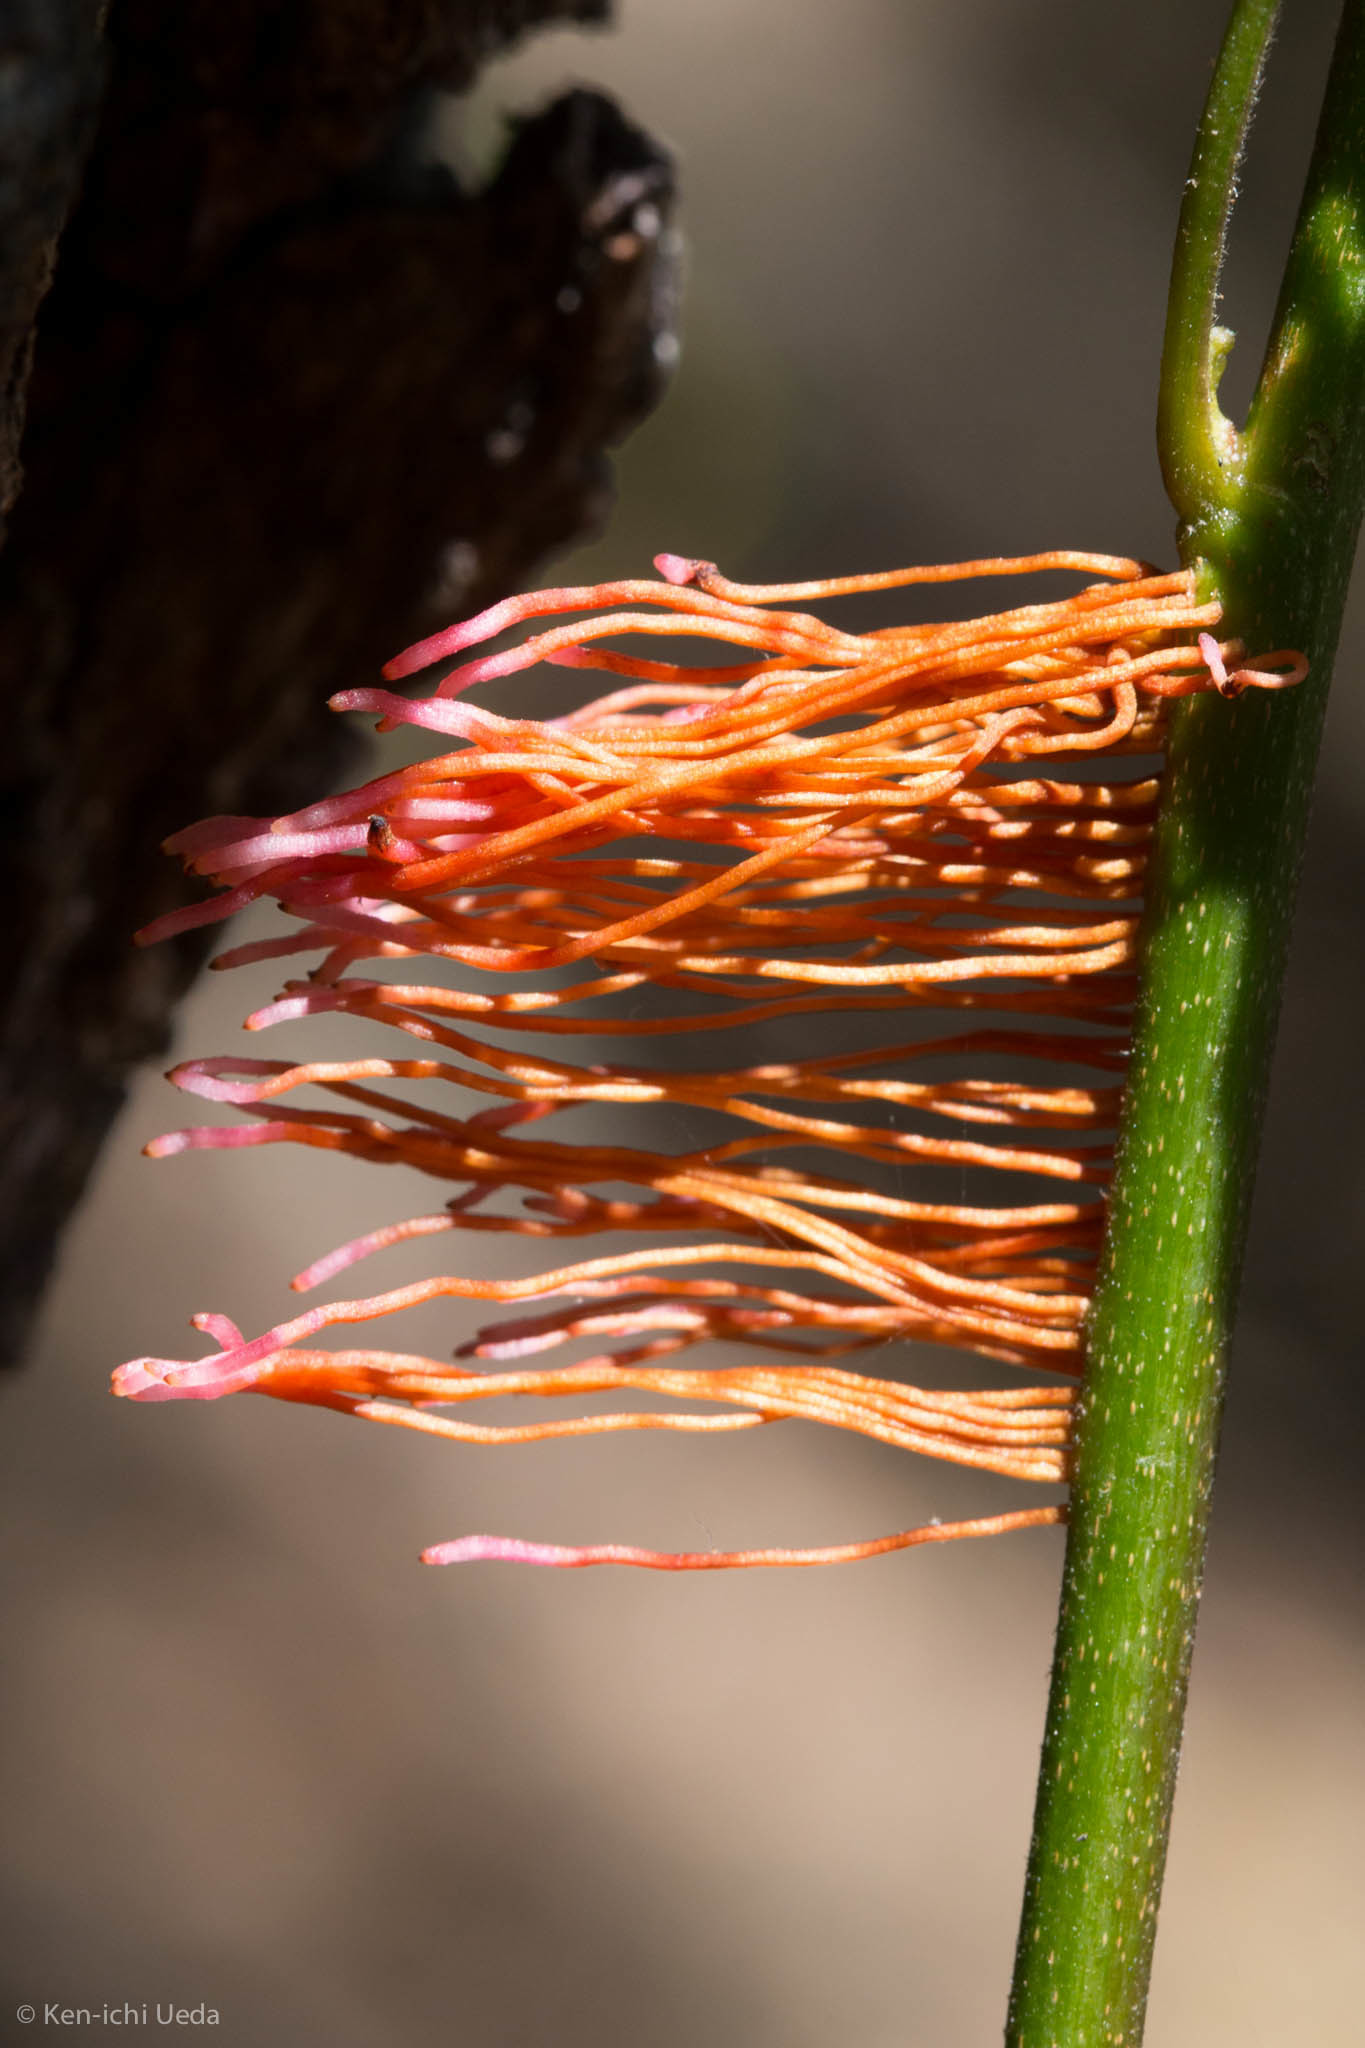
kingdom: Plantae
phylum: Tracheophyta
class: Magnoliopsida
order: Sapindales
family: Anacardiaceae
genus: Toxicodendron
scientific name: Toxicodendron diversilobum
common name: Pacific poison-oak
